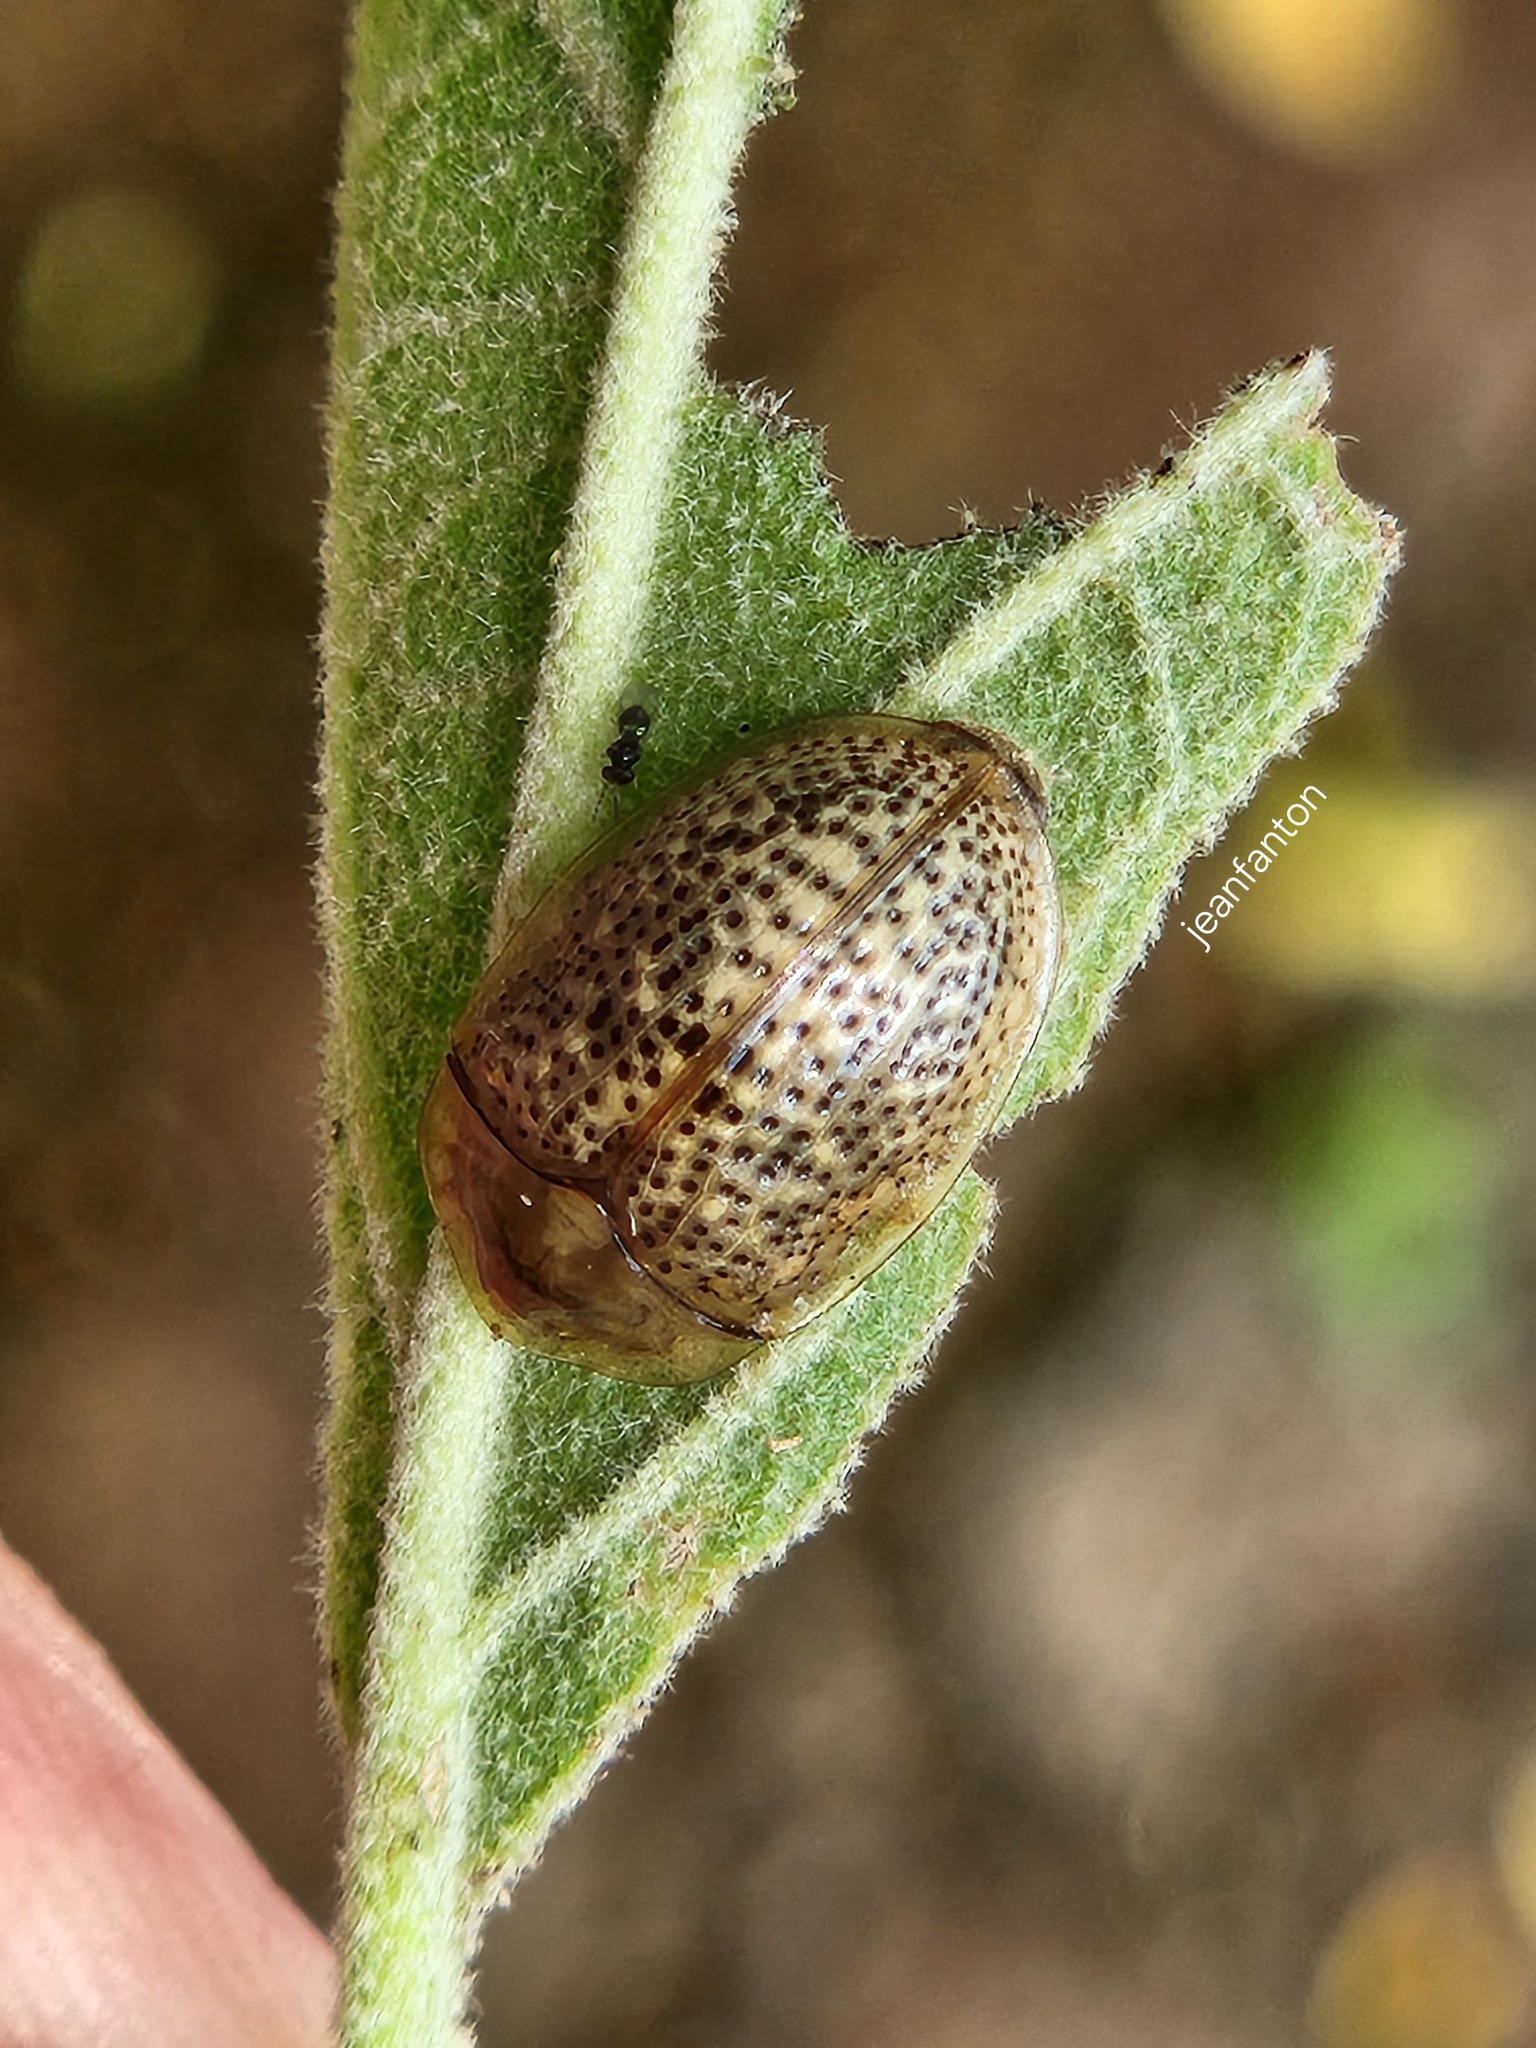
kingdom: Animalia
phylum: Arthropoda
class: Insecta
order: Coleoptera
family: Chrysomelidae
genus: Cistudinella
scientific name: Cistudinella obducta
